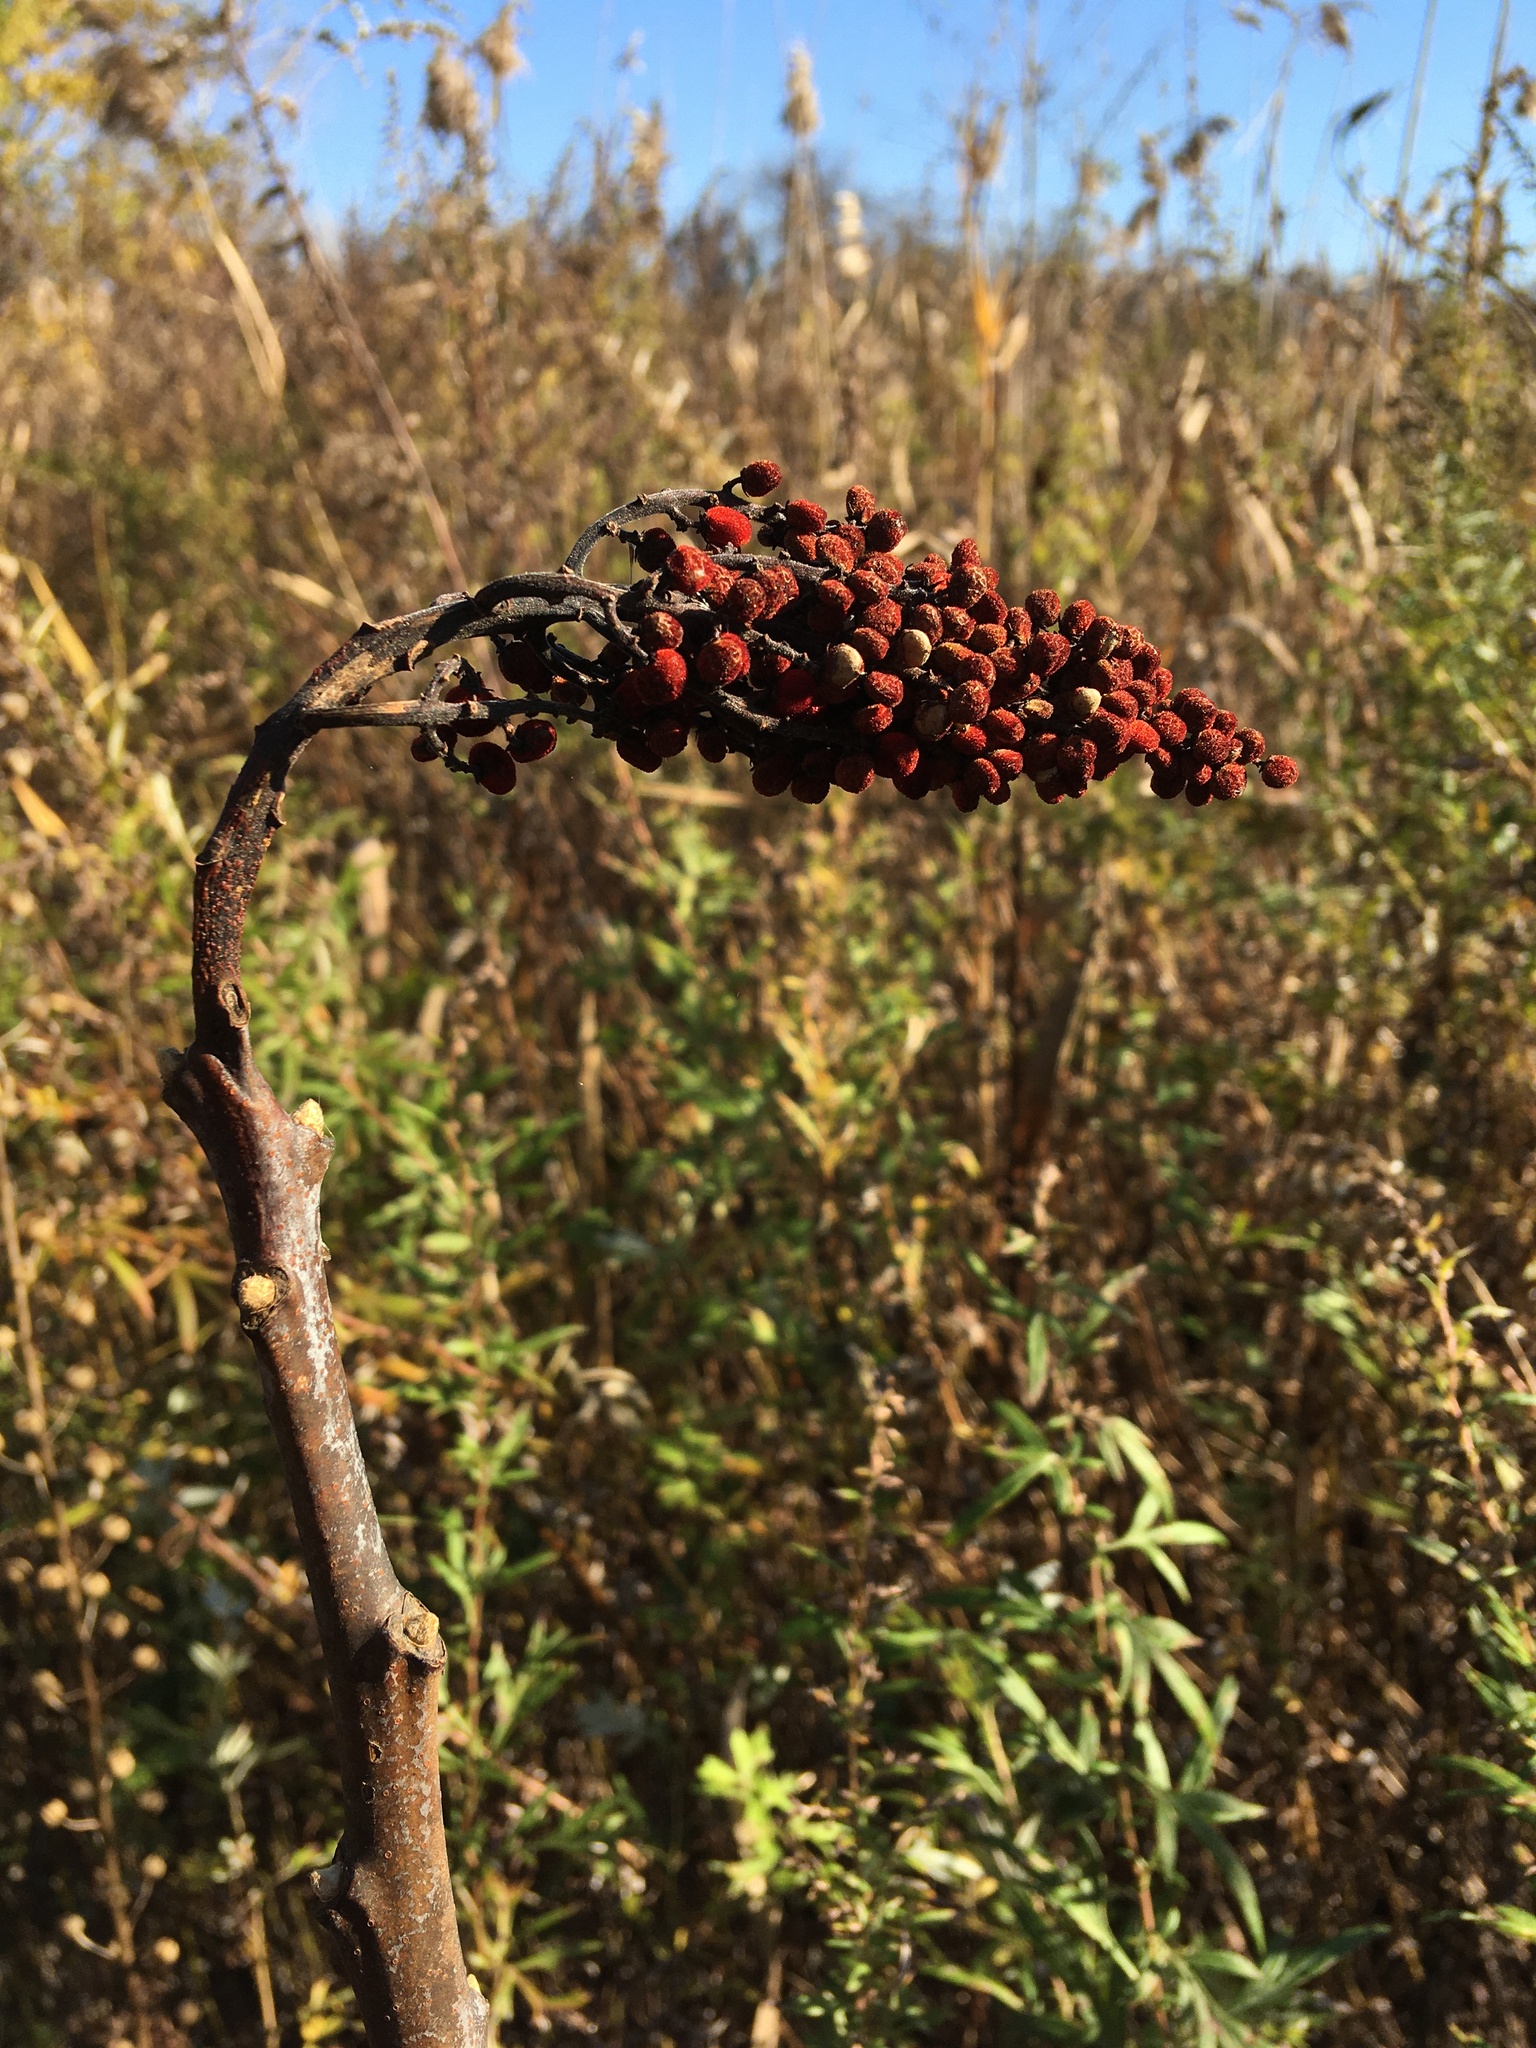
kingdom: Plantae
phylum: Tracheophyta
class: Magnoliopsida
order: Sapindales
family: Anacardiaceae
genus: Rhus
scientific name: Rhus glabra
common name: Scarlet sumac
